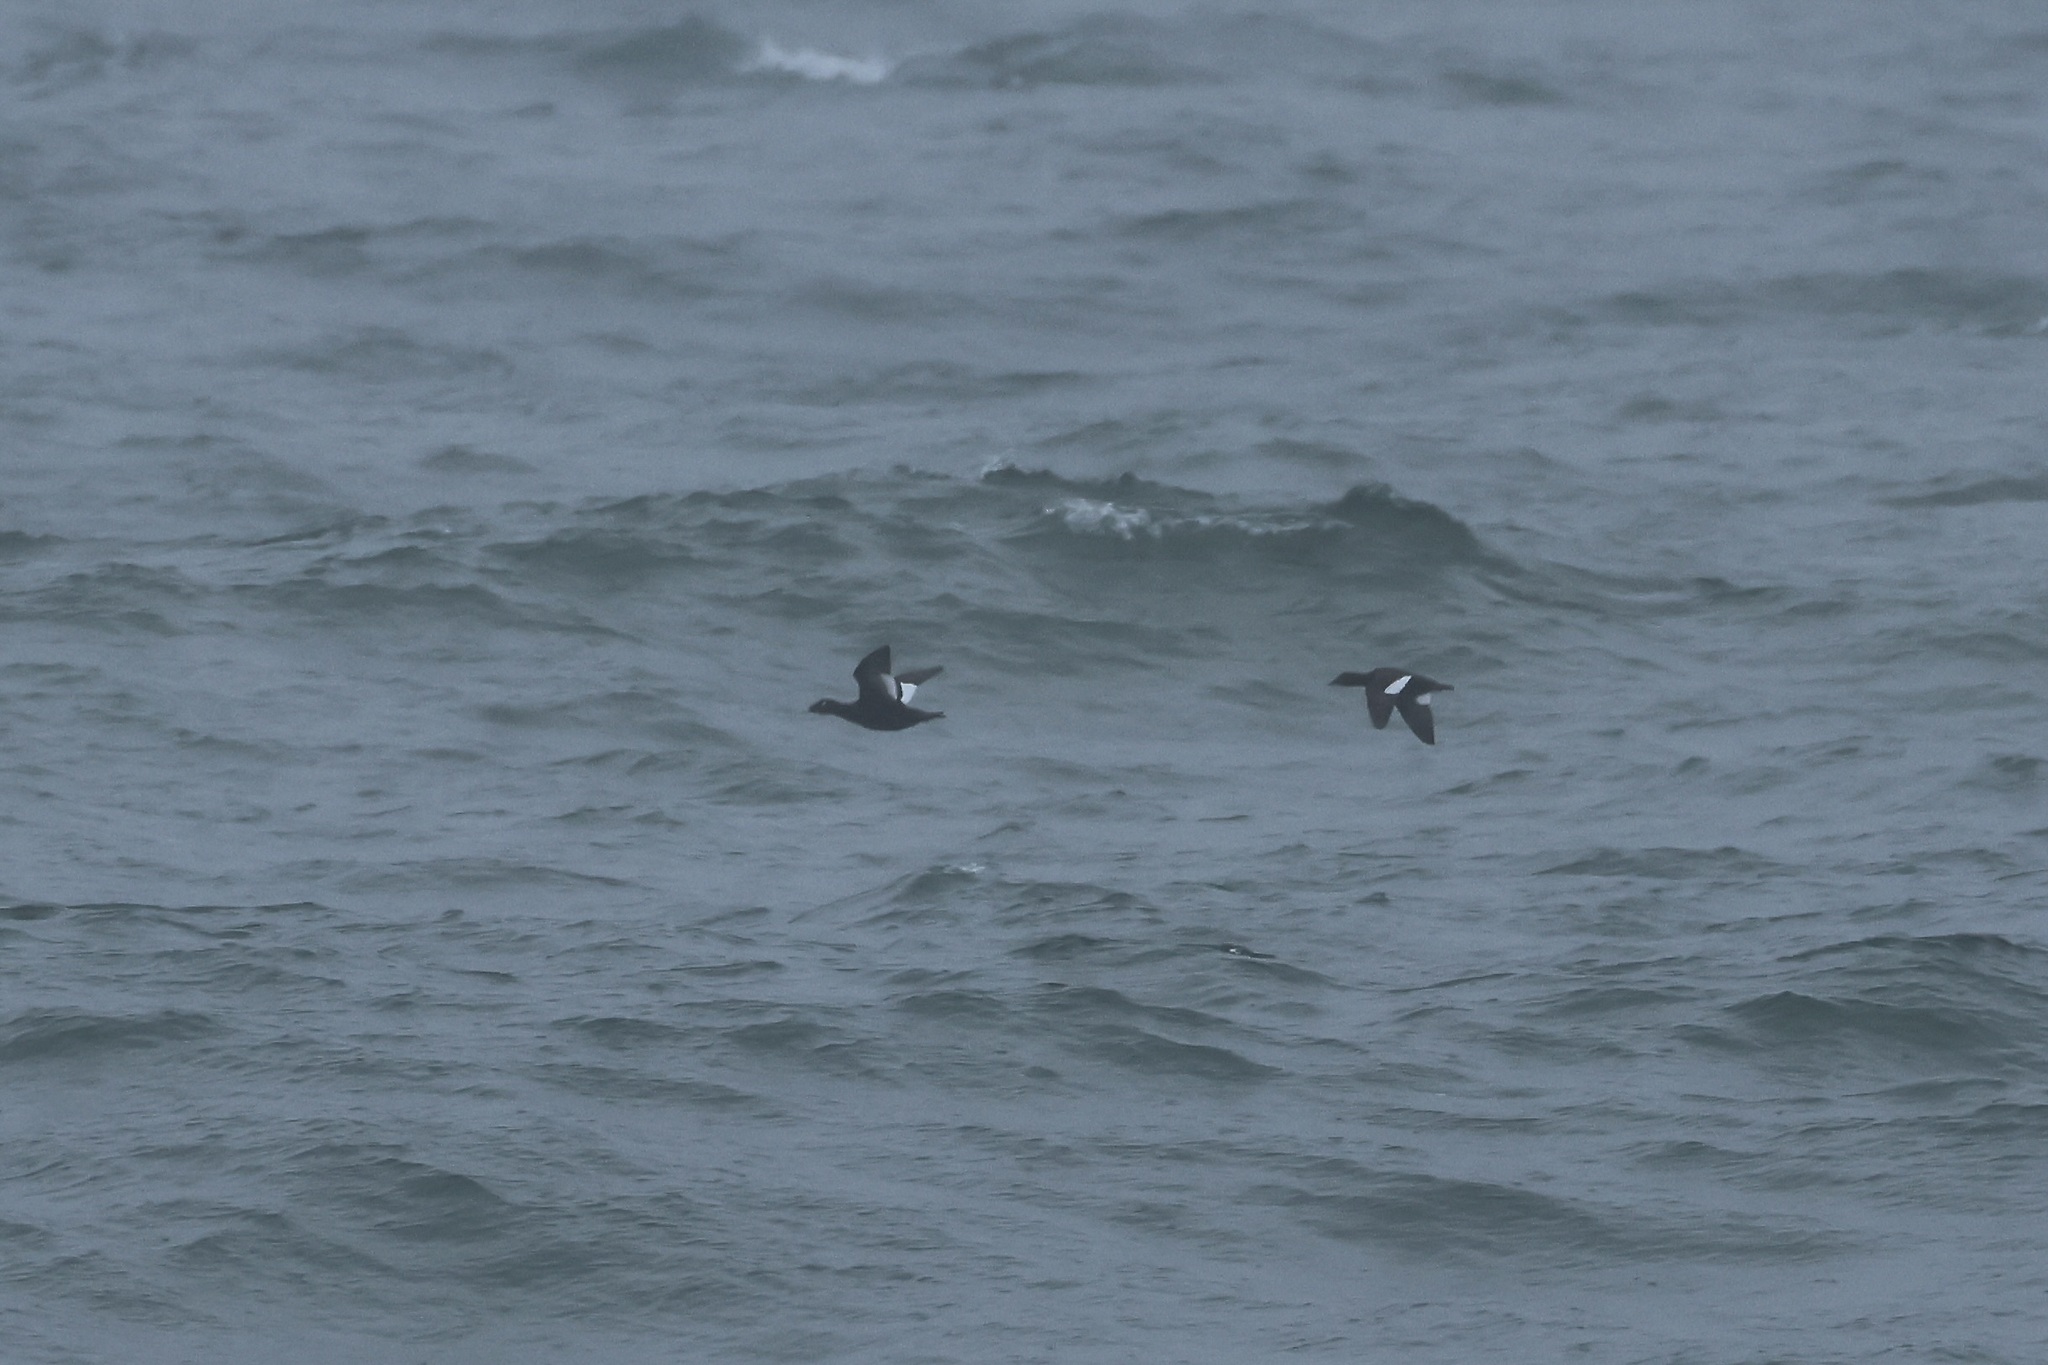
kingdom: Animalia
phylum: Chordata
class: Aves
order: Anseriformes
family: Anatidae
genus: Melanitta
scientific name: Melanitta deglandi
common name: White-winged scoter
